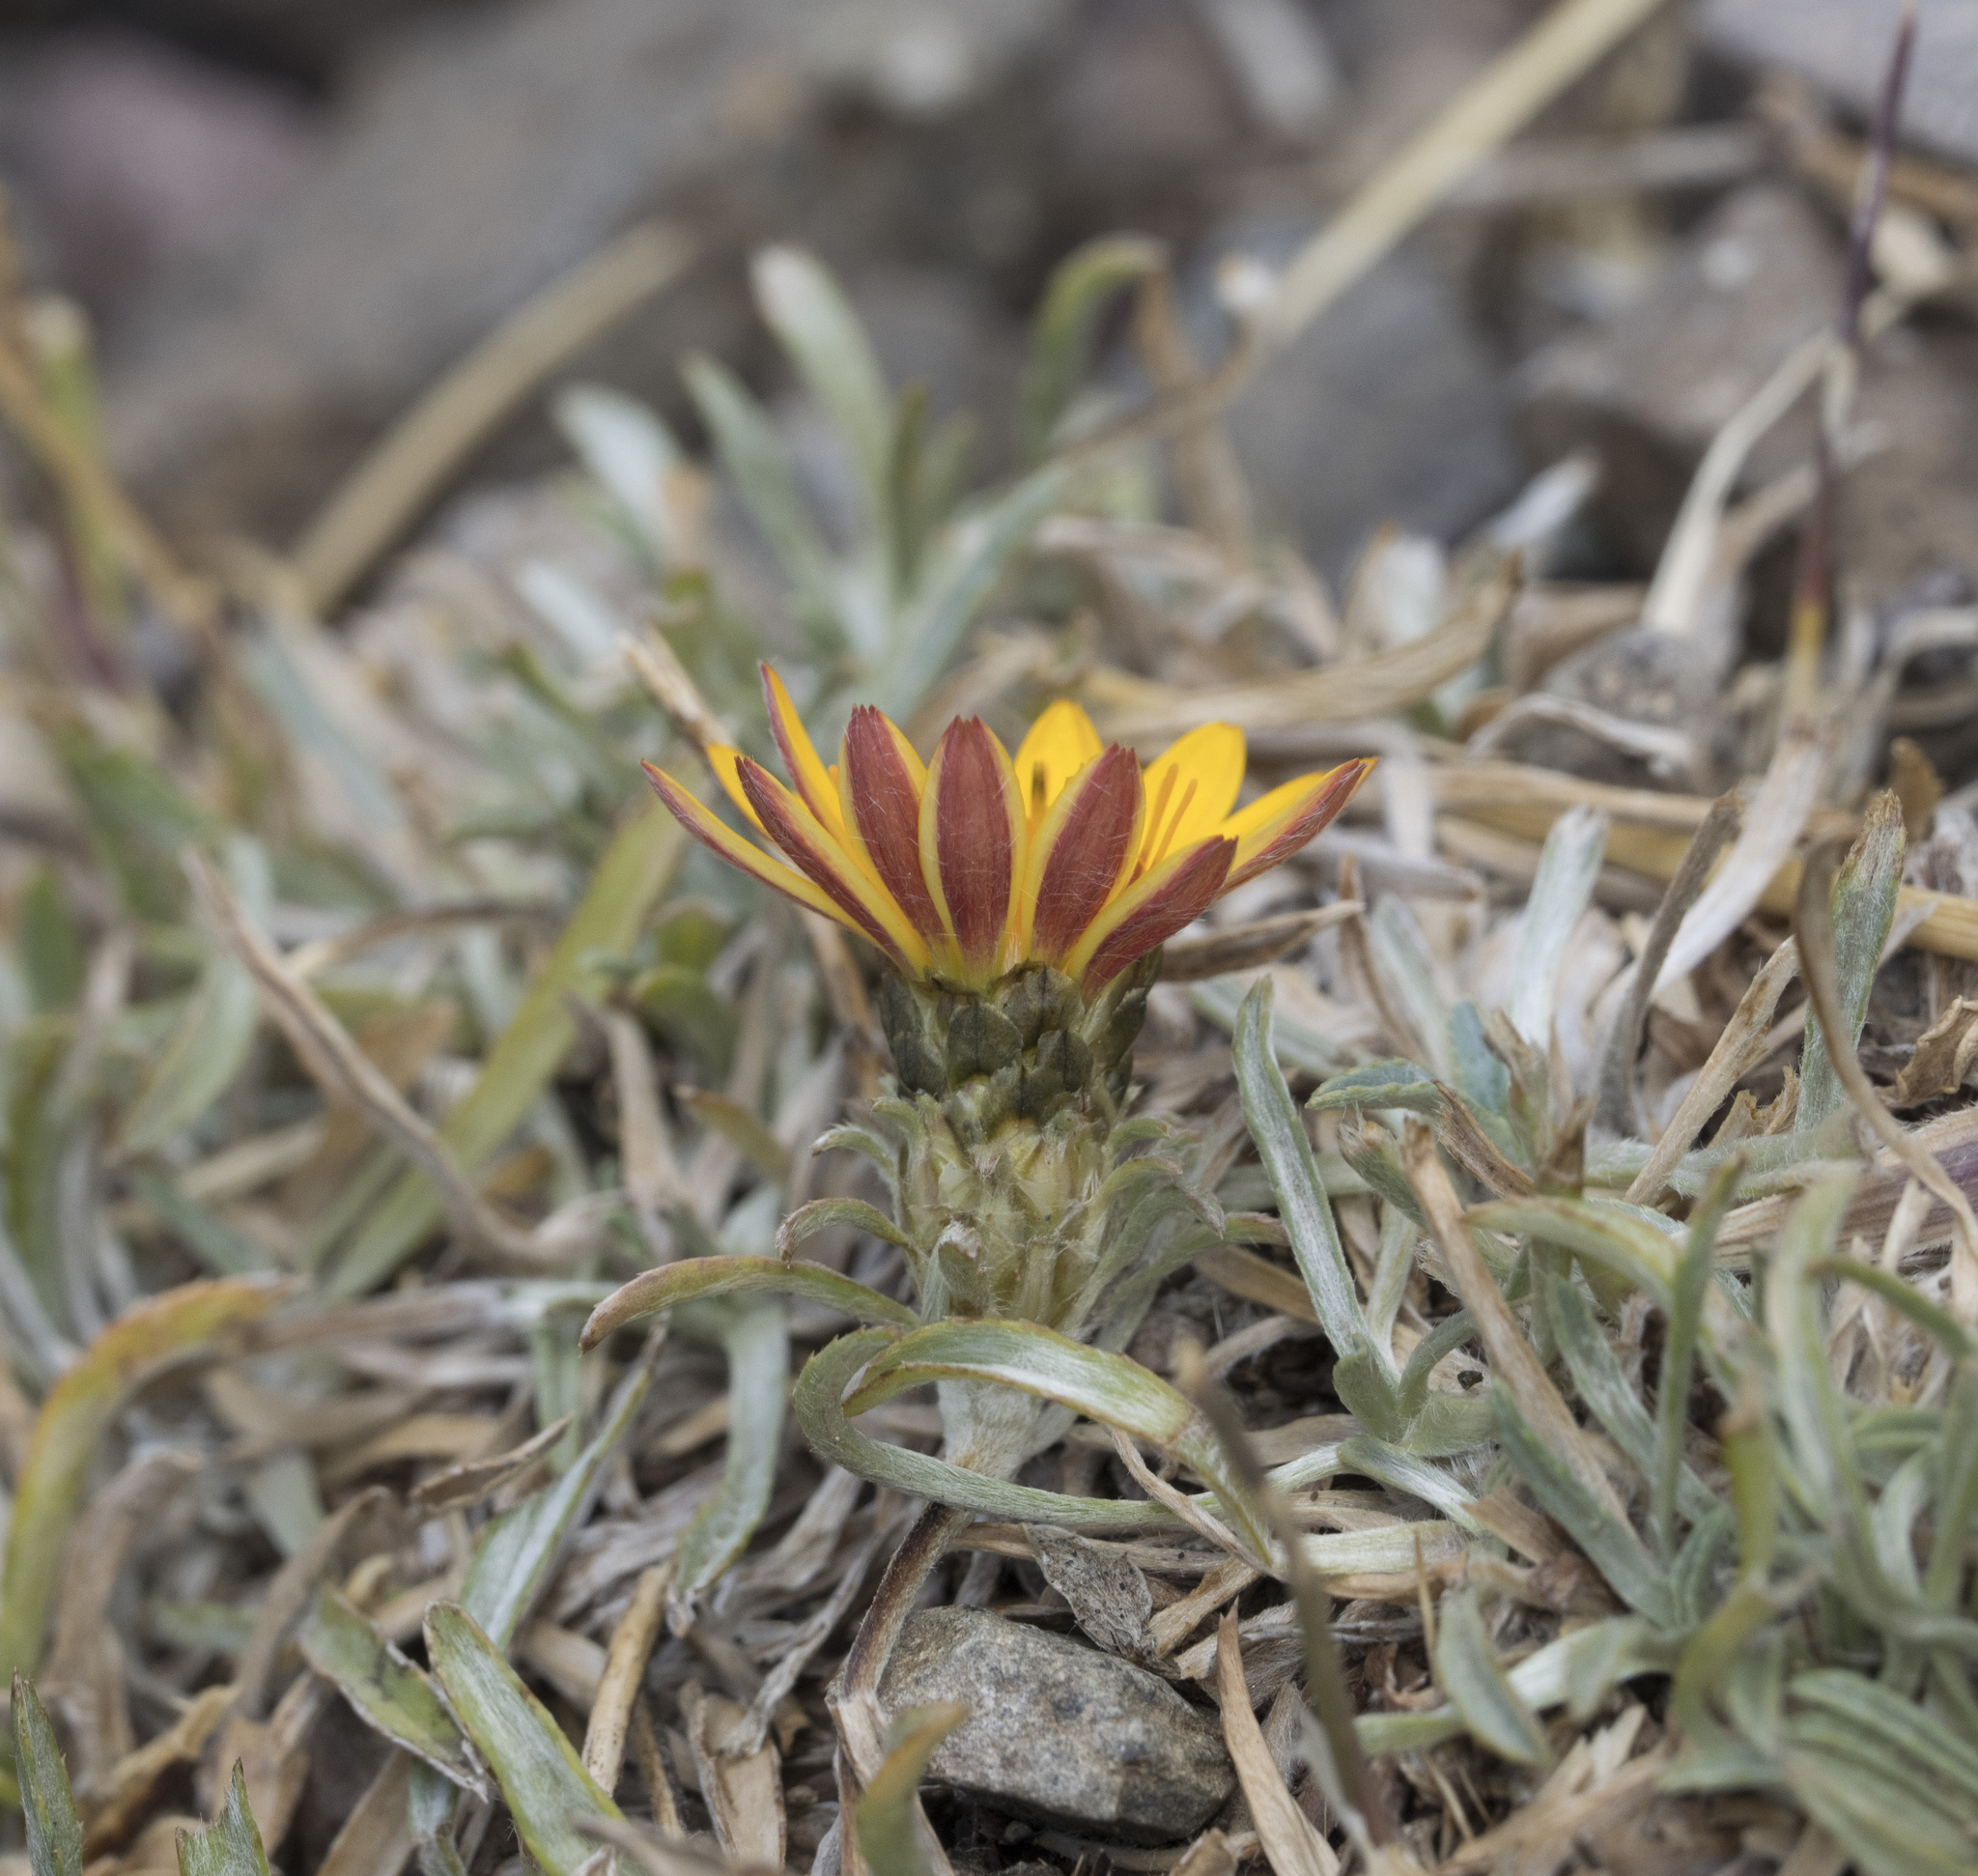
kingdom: Plantae
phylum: Tracheophyta
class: Magnoliopsida
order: Asterales
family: Asteraceae
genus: Chaetanthera
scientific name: Chaetanthera chilensis
